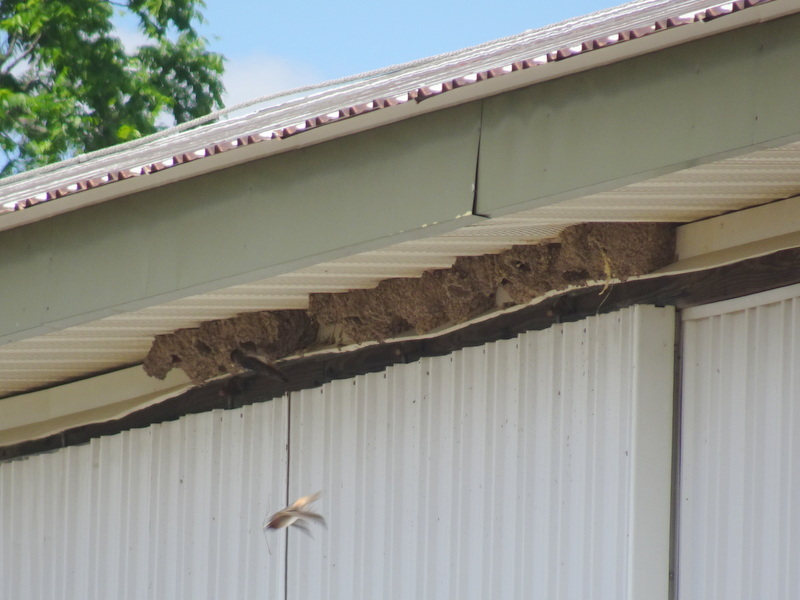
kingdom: Animalia
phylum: Chordata
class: Aves
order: Passeriformes
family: Hirundinidae
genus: Petrochelidon
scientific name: Petrochelidon pyrrhonota
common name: American cliff swallow
